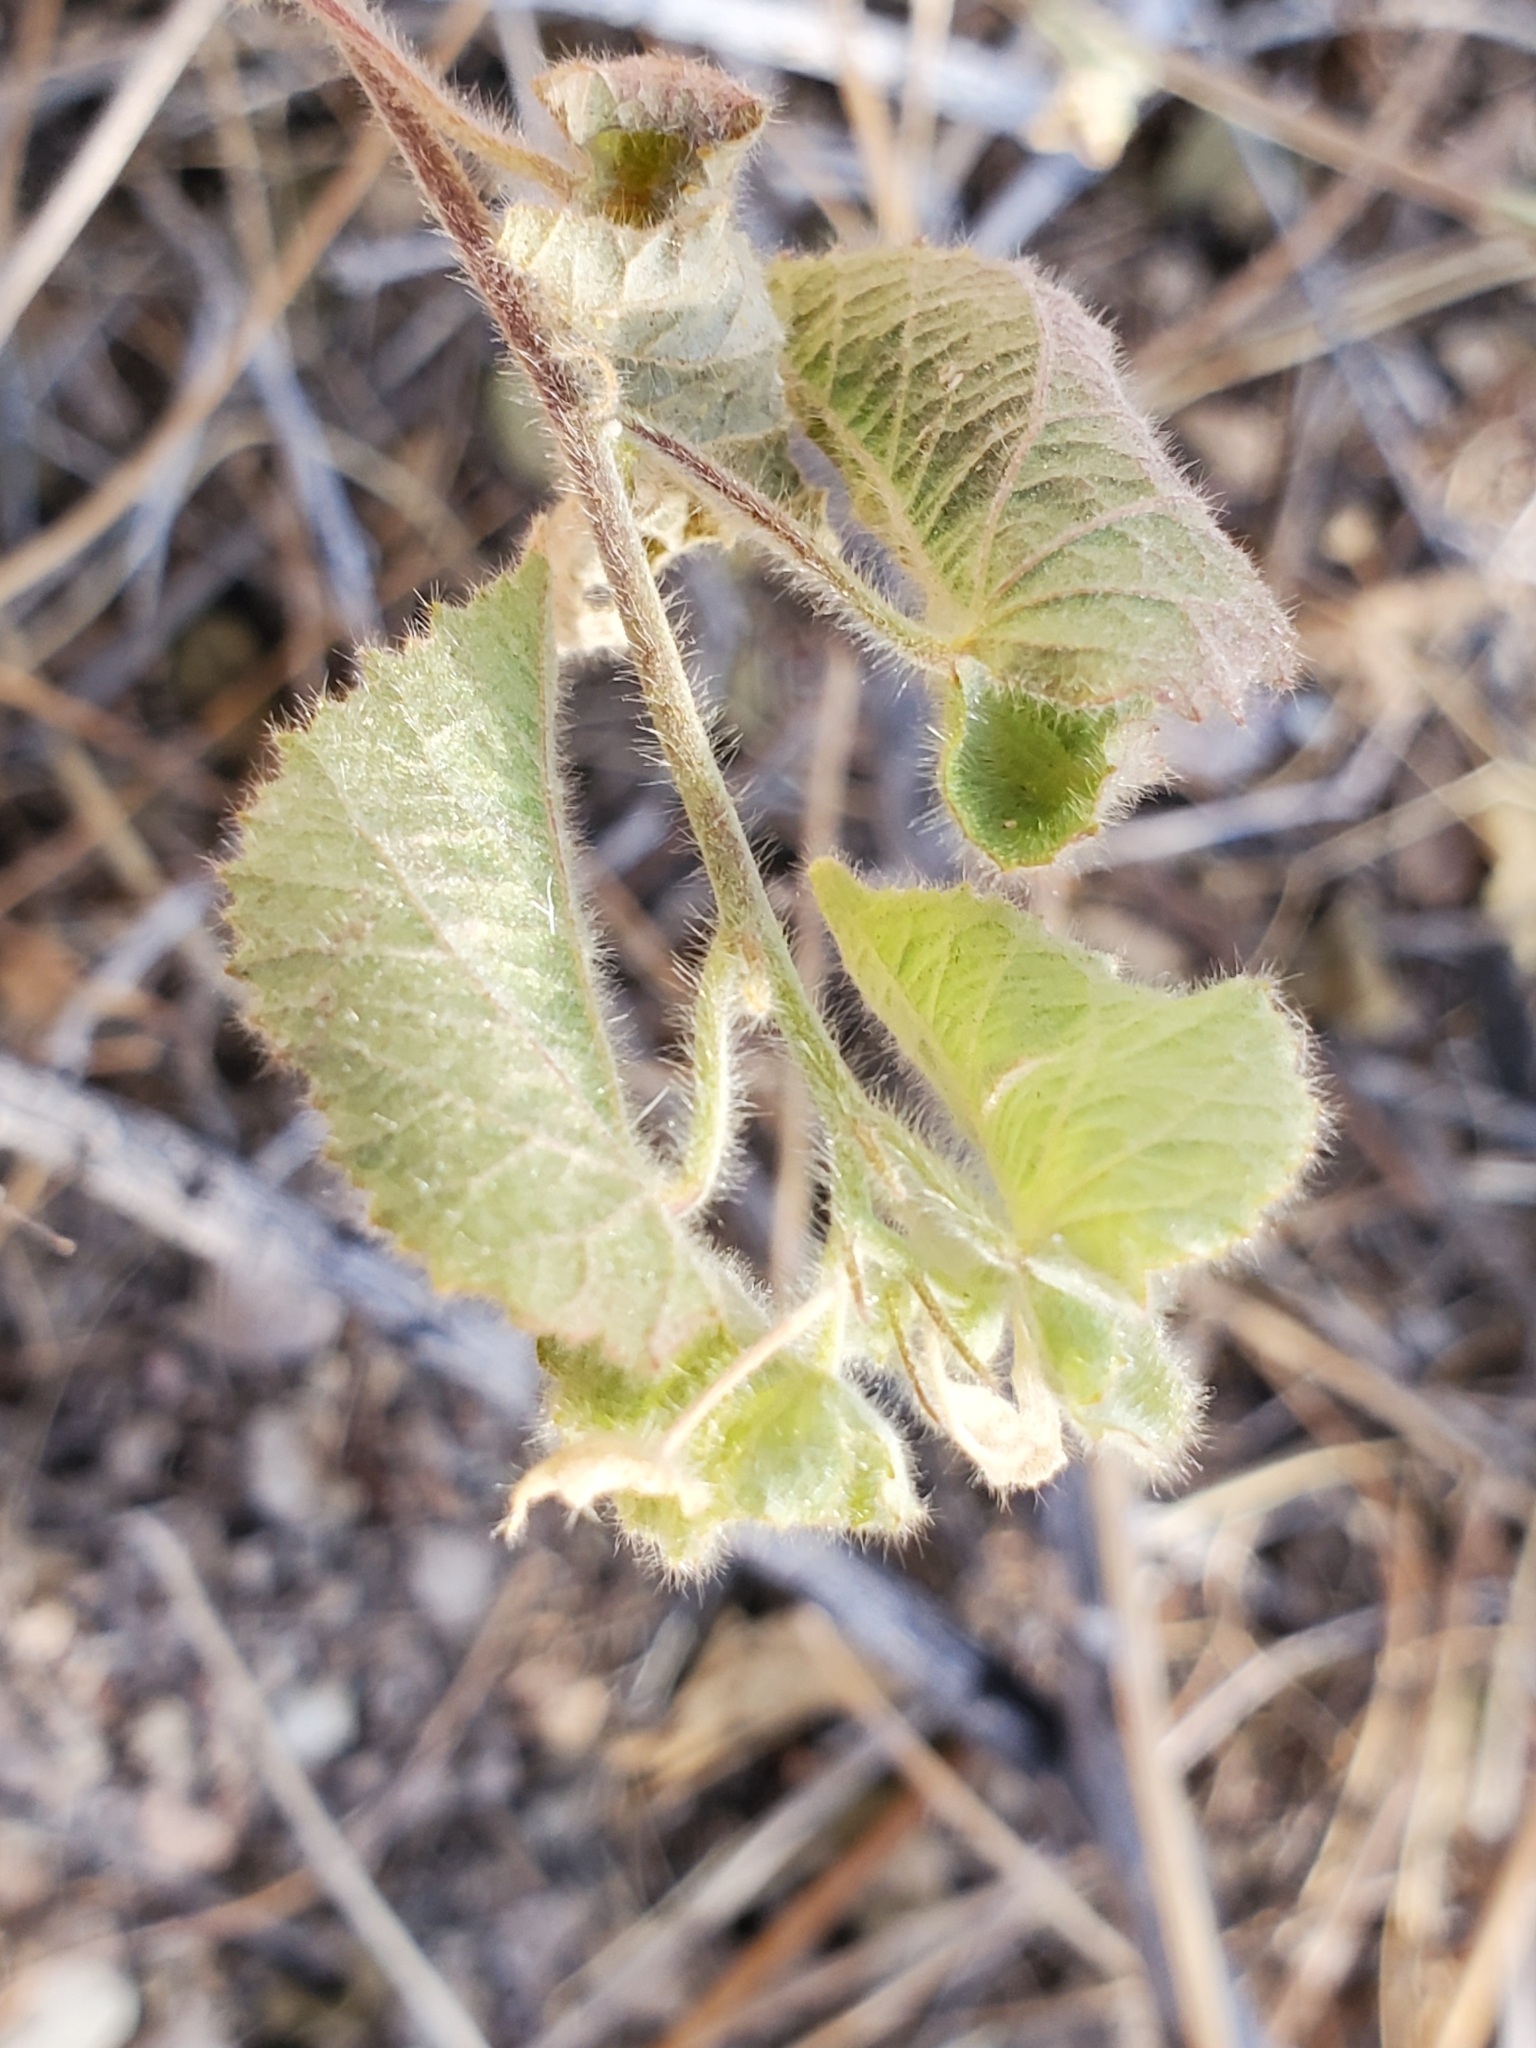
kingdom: Plantae
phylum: Tracheophyta
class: Magnoliopsida
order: Malvales
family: Malvaceae
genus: Herissantia
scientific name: Herissantia crispa
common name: Bladdermallow
